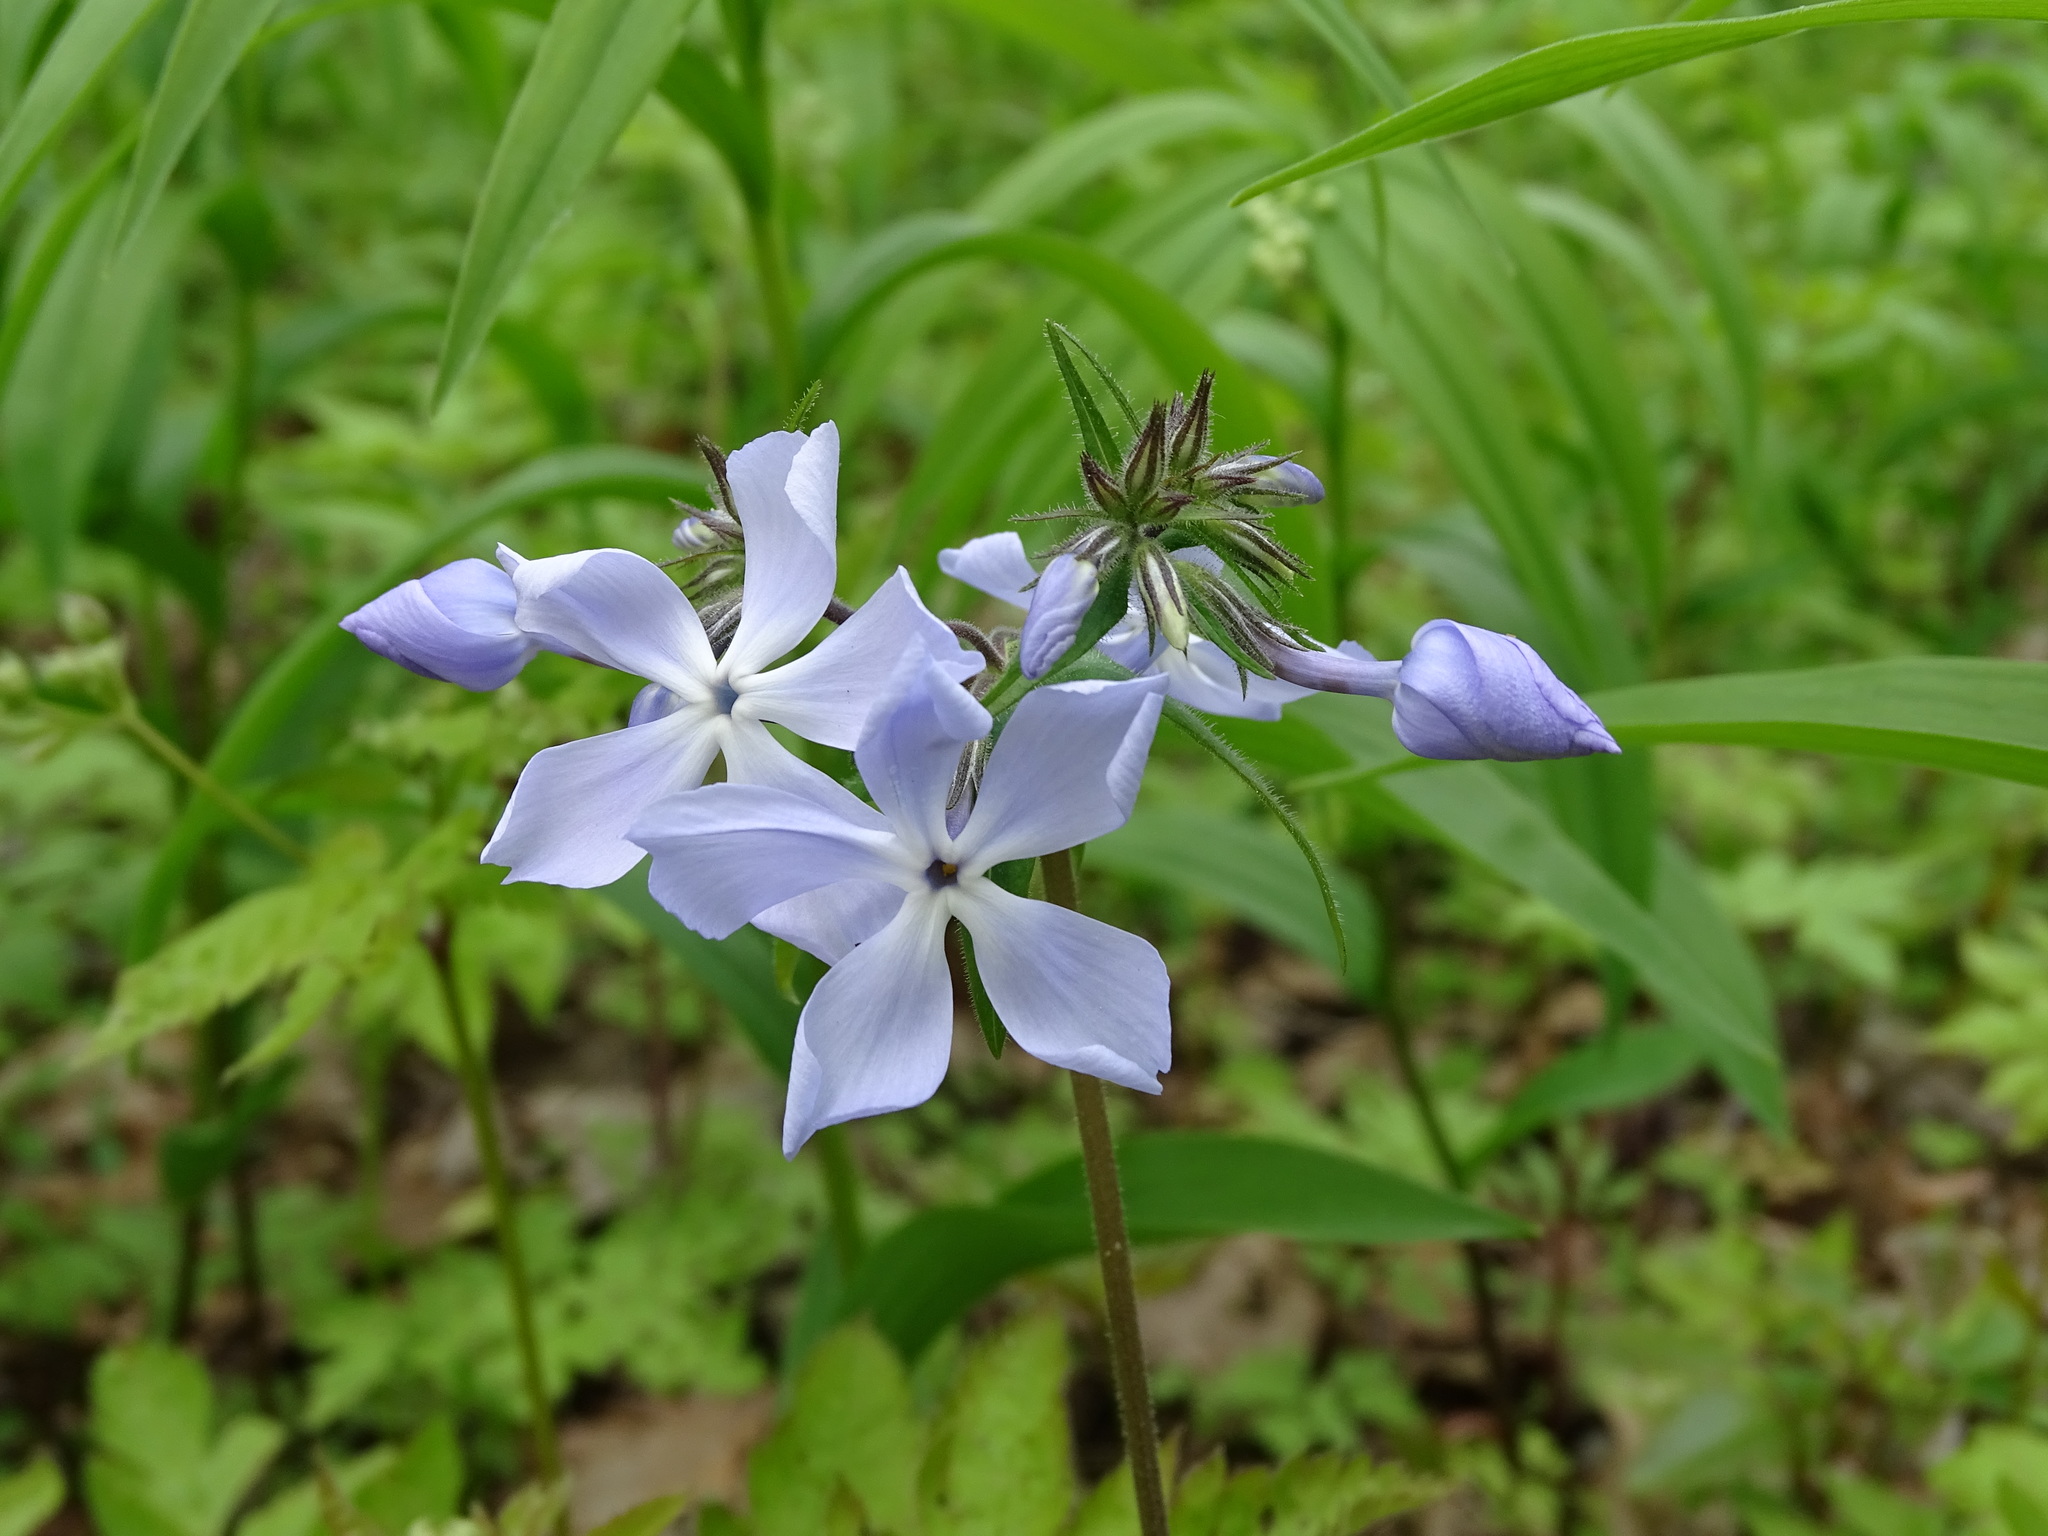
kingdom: Plantae
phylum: Tracheophyta
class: Magnoliopsida
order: Ericales
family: Polemoniaceae
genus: Phlox
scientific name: Phlox divaricata
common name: Blue phlox
